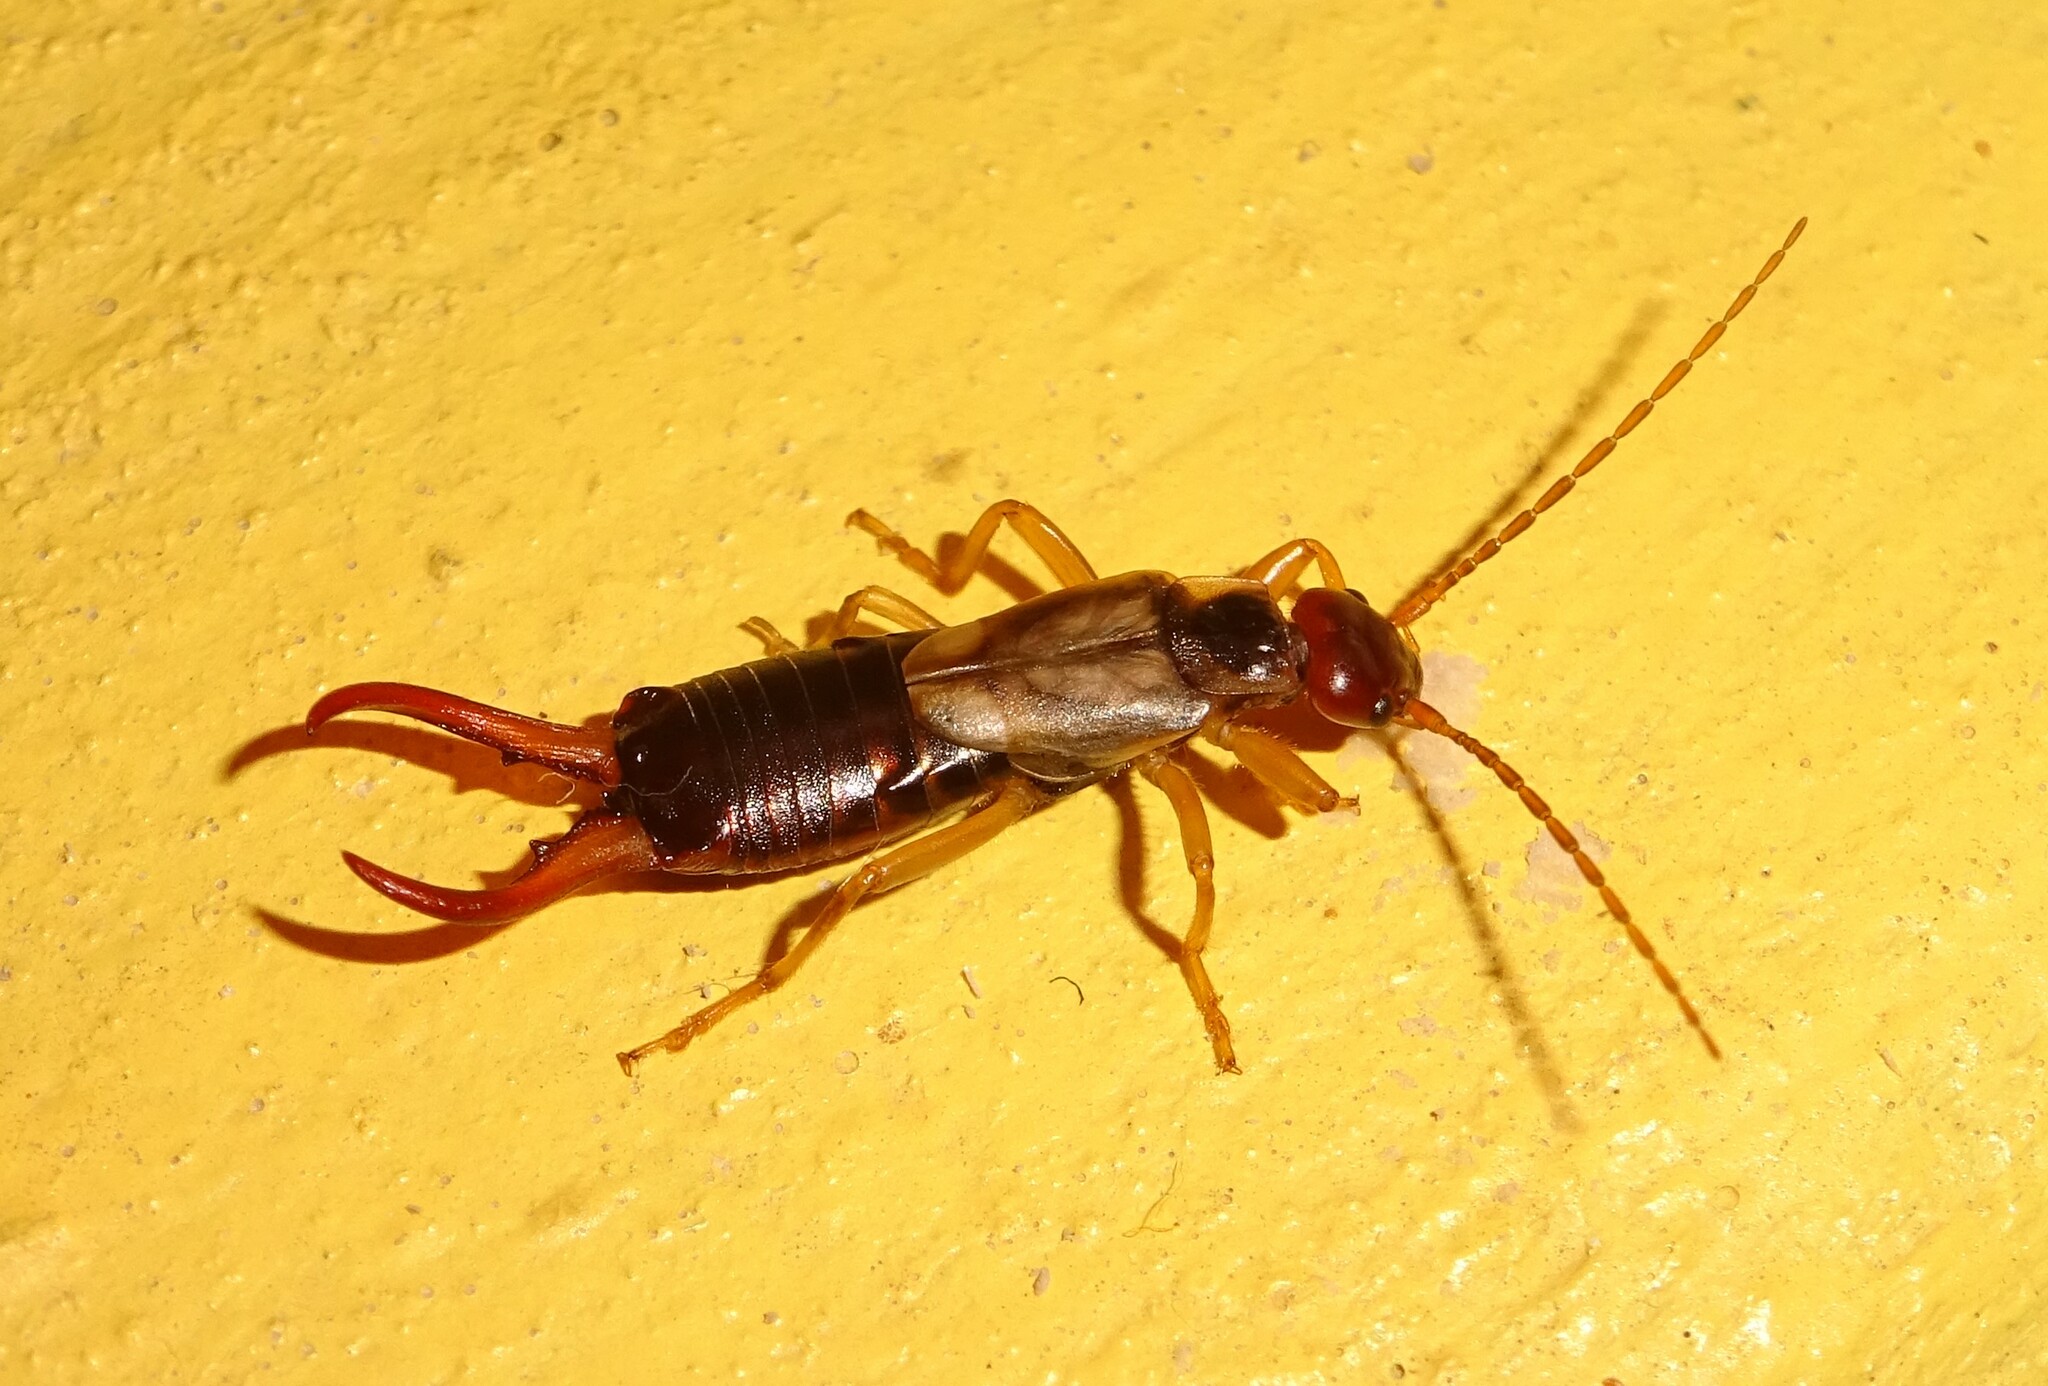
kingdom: Animalia
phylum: Arthropoda
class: Insecta
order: Dermaptera
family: Forficulidae
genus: Forficula
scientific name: Forficula auricularia
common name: European earwig
